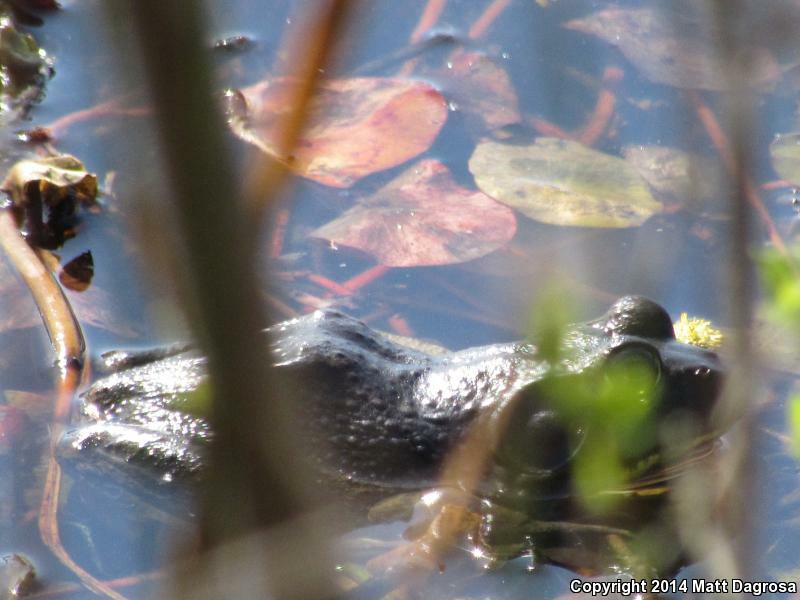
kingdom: Animalia
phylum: Chordata
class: Amphibia
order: Anura
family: Ranidae
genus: Lithobates
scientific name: Lithobates catesbeianus
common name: American bullfrog
